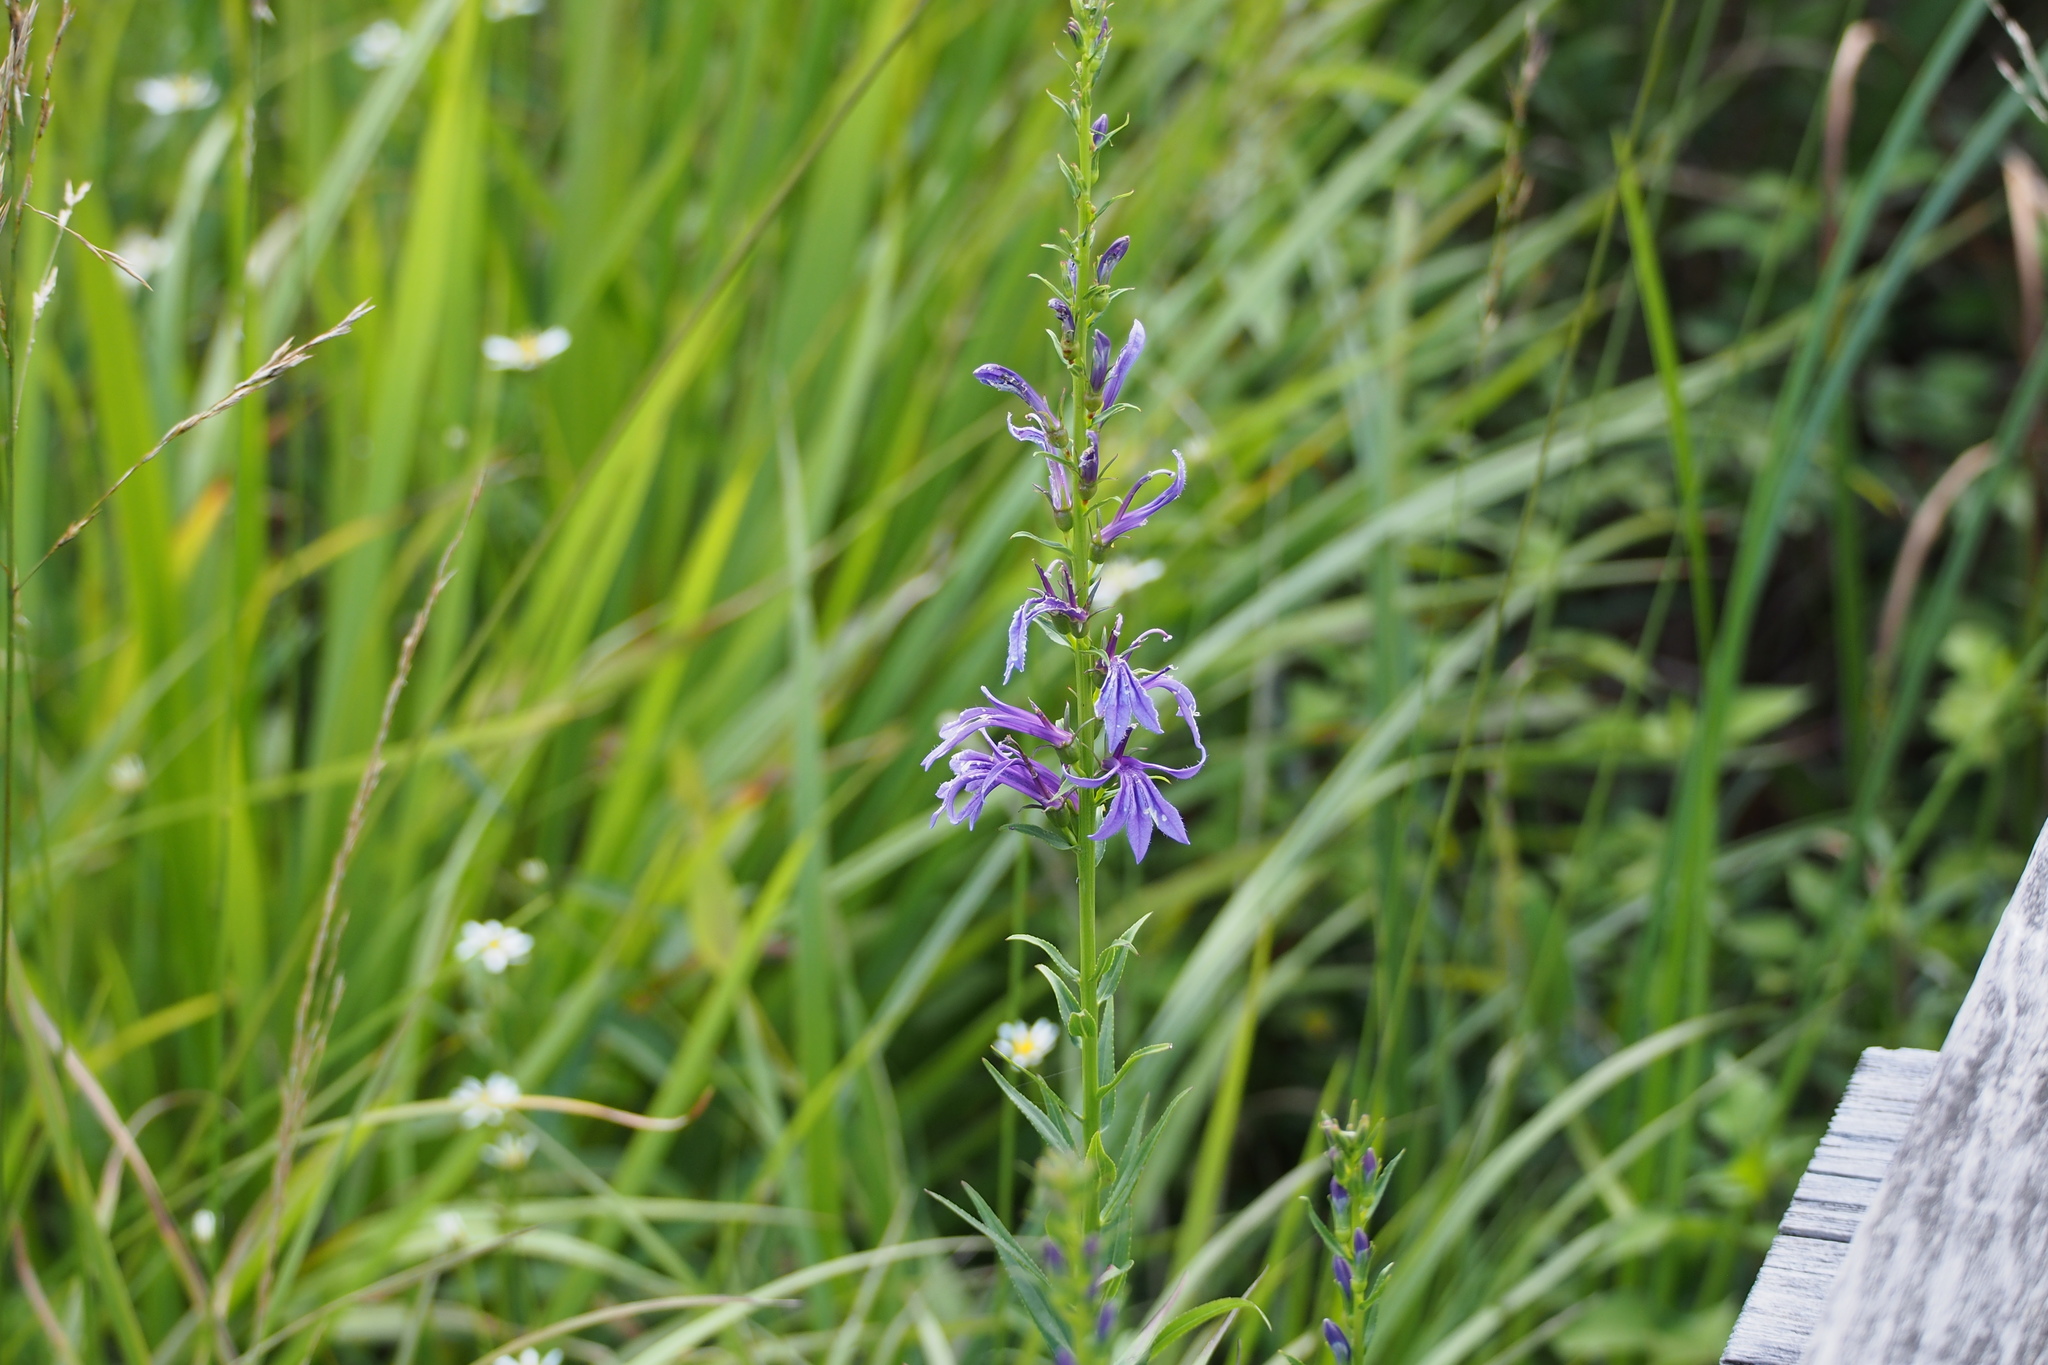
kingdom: Plantae
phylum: Tracheophyta
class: Magnoliopsida
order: Asterales
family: Campanulaceae
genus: Lobelia
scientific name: Lobelia sessilifolia
